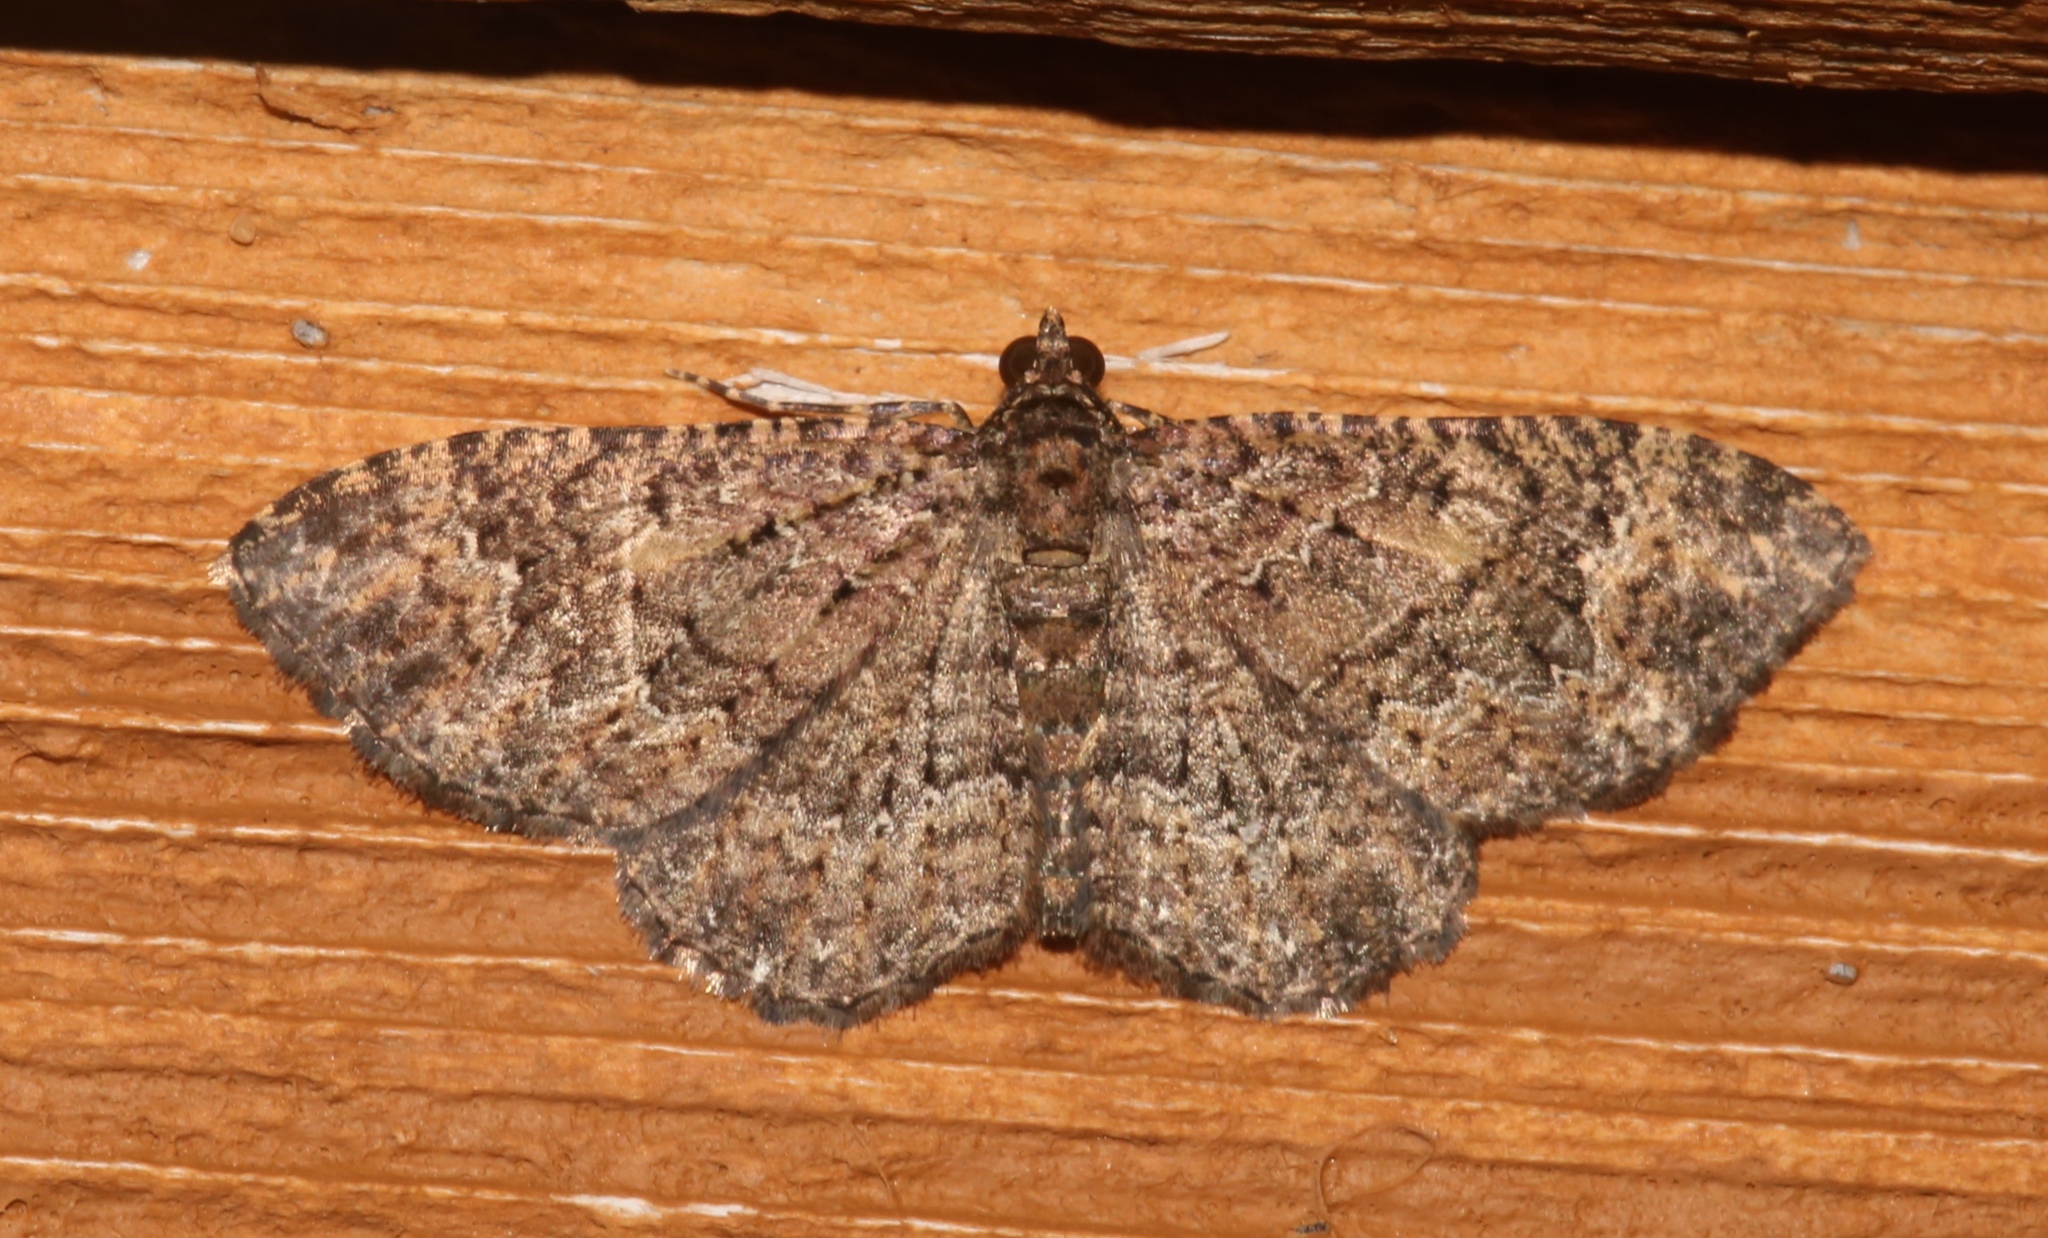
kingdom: Animalia
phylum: Arthropoda
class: Insecta
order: Lepidoptera
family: Geometridae
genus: Disclisioprocta
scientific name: Disclisioprocta stellata
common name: Somber carpet
